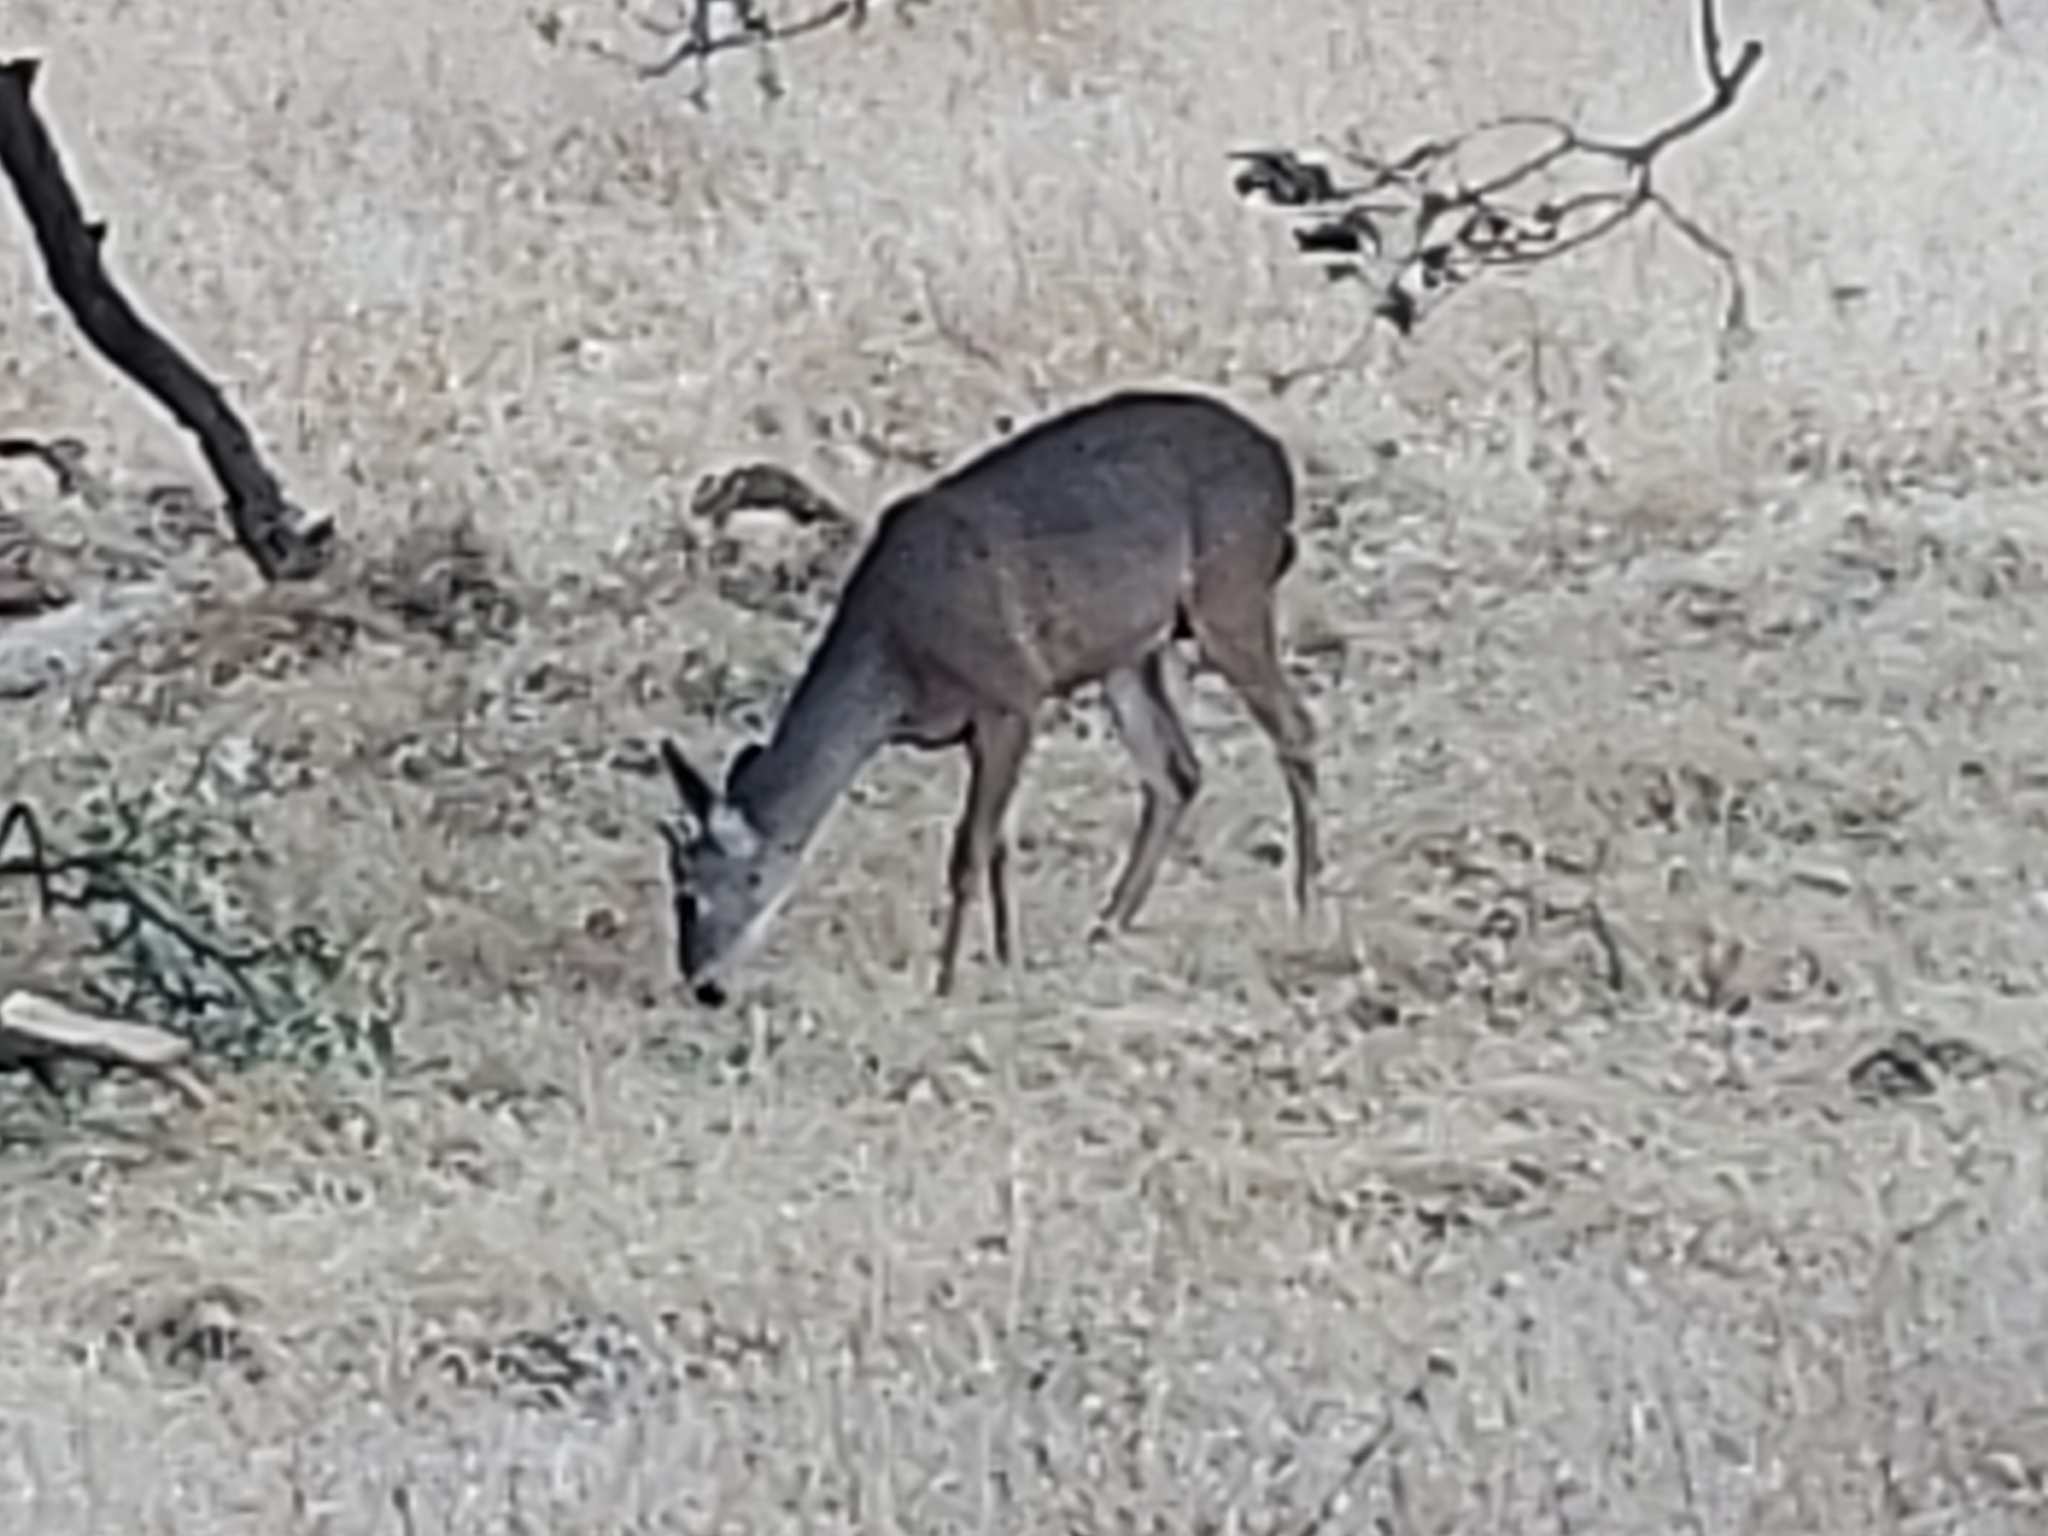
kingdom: Animalia
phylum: Chordata
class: Mammalia
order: Artiodactyla
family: Cervidae
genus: Odocoileus
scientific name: Odocoileus hemionus
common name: Mule deer
